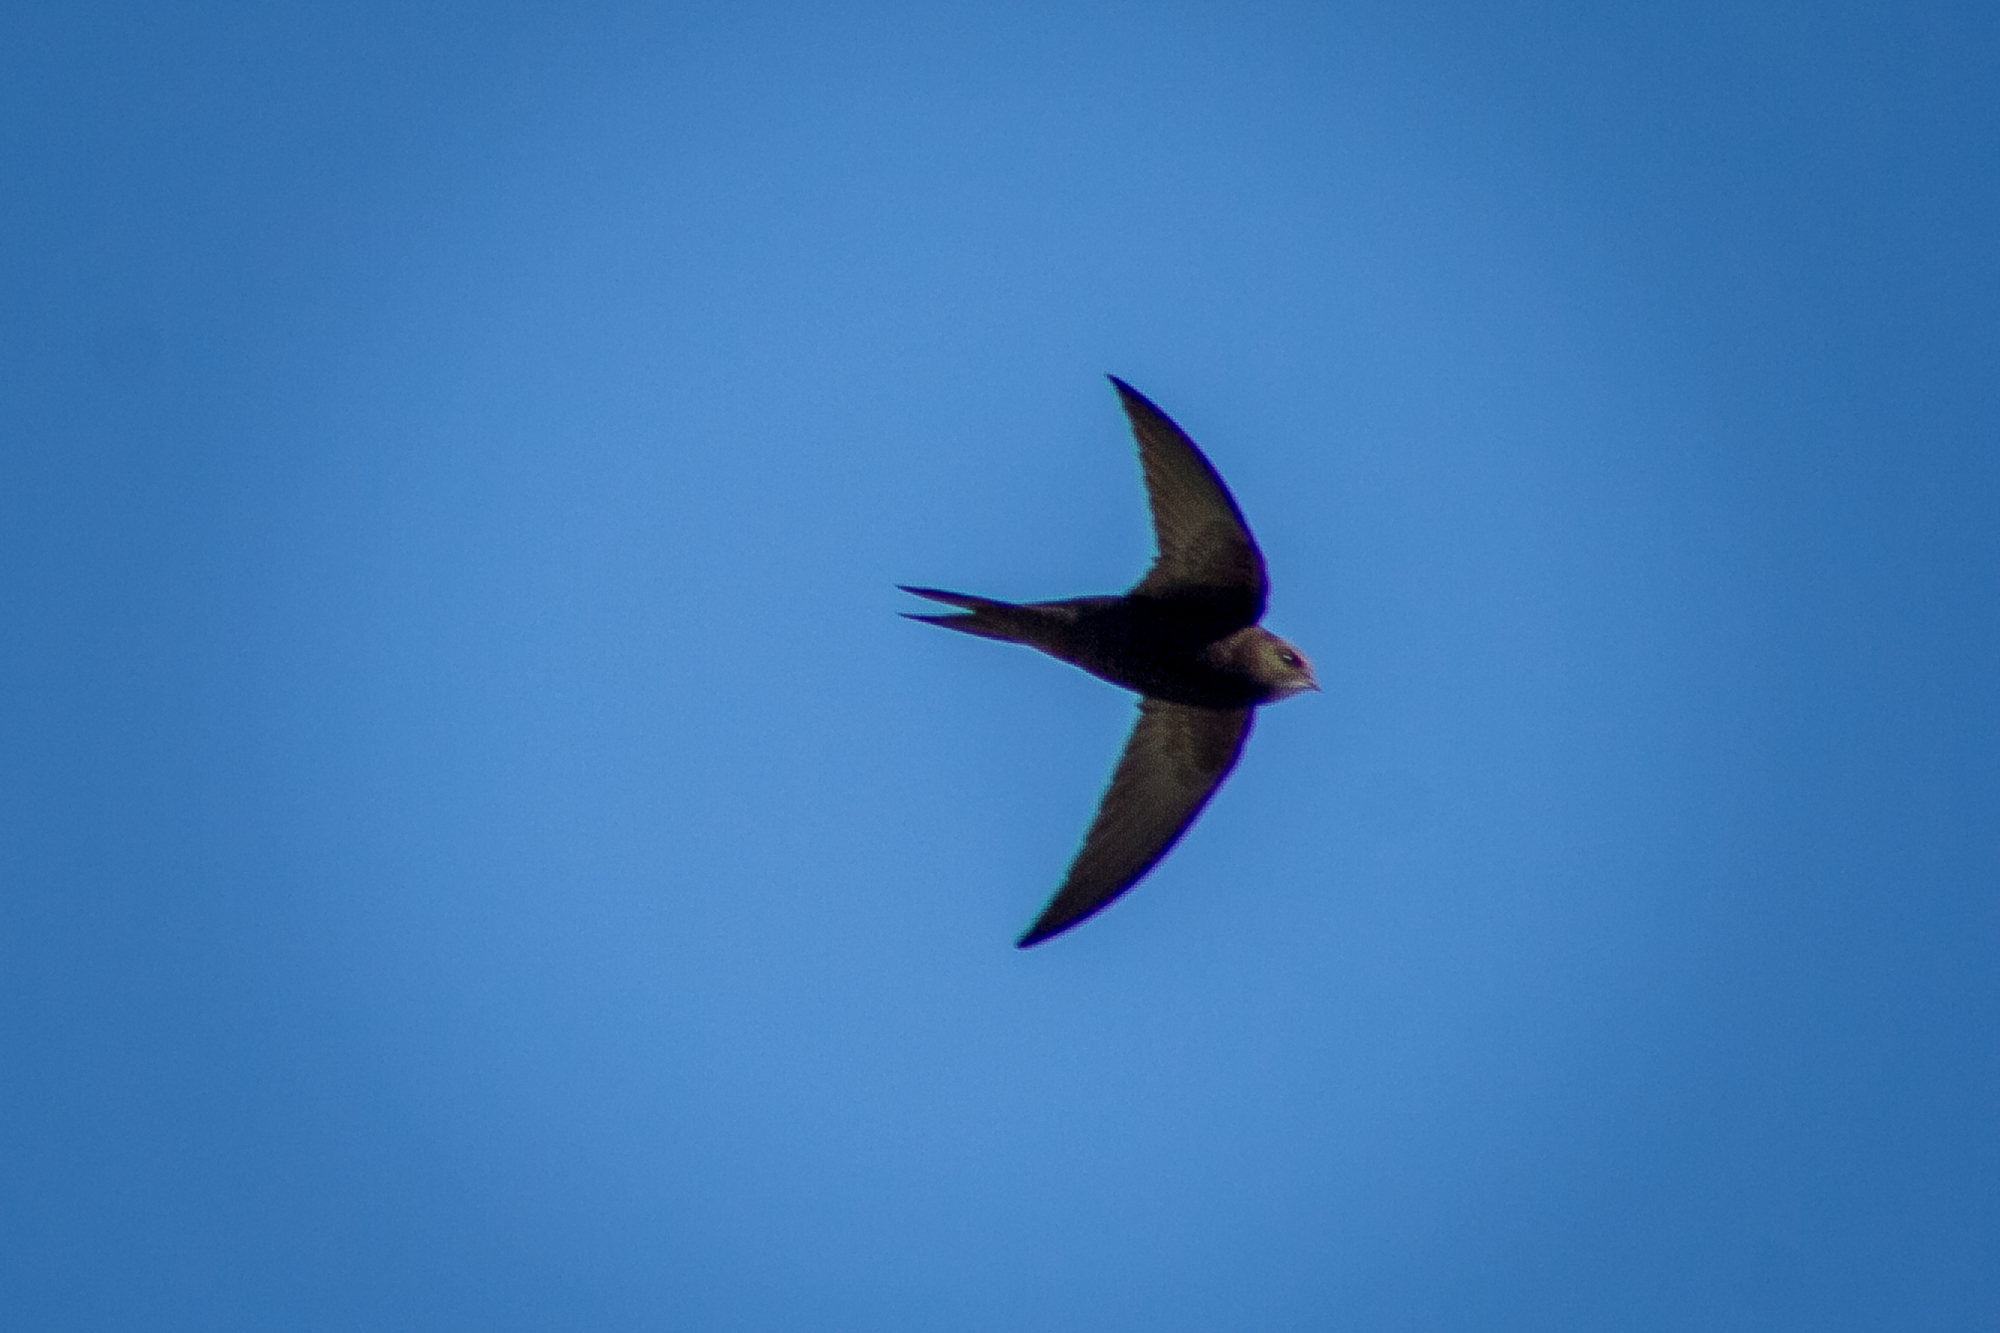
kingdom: Animalia
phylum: Chordata
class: Aves
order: Apodiformes
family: Apodidae
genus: Apus
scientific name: Apus apus
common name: Common swift
